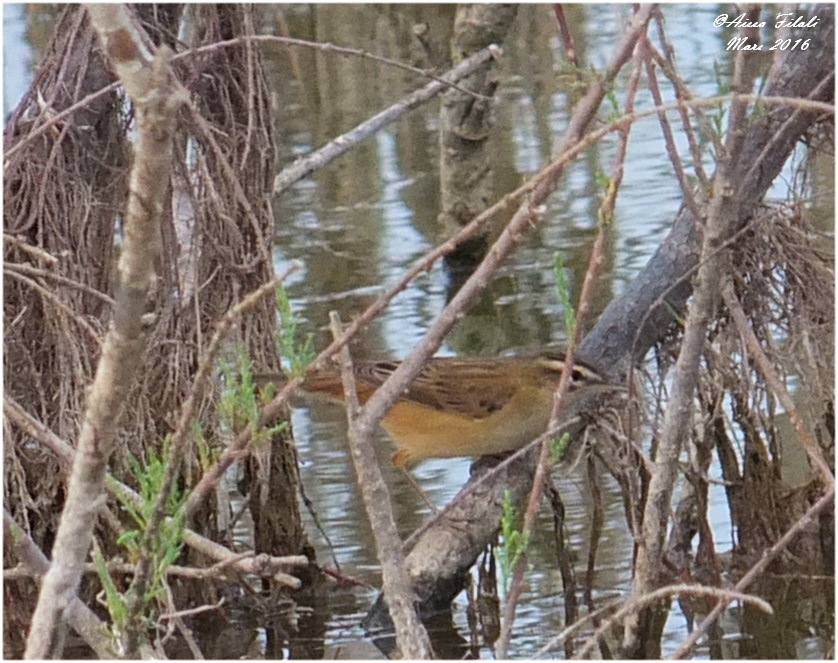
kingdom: Animalia
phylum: Chordata
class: Aves
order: Passeriformes
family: Acrocephalidae
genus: Acrocephalus
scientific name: Acrocephalus schoenobaenus
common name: Sedge warbler
